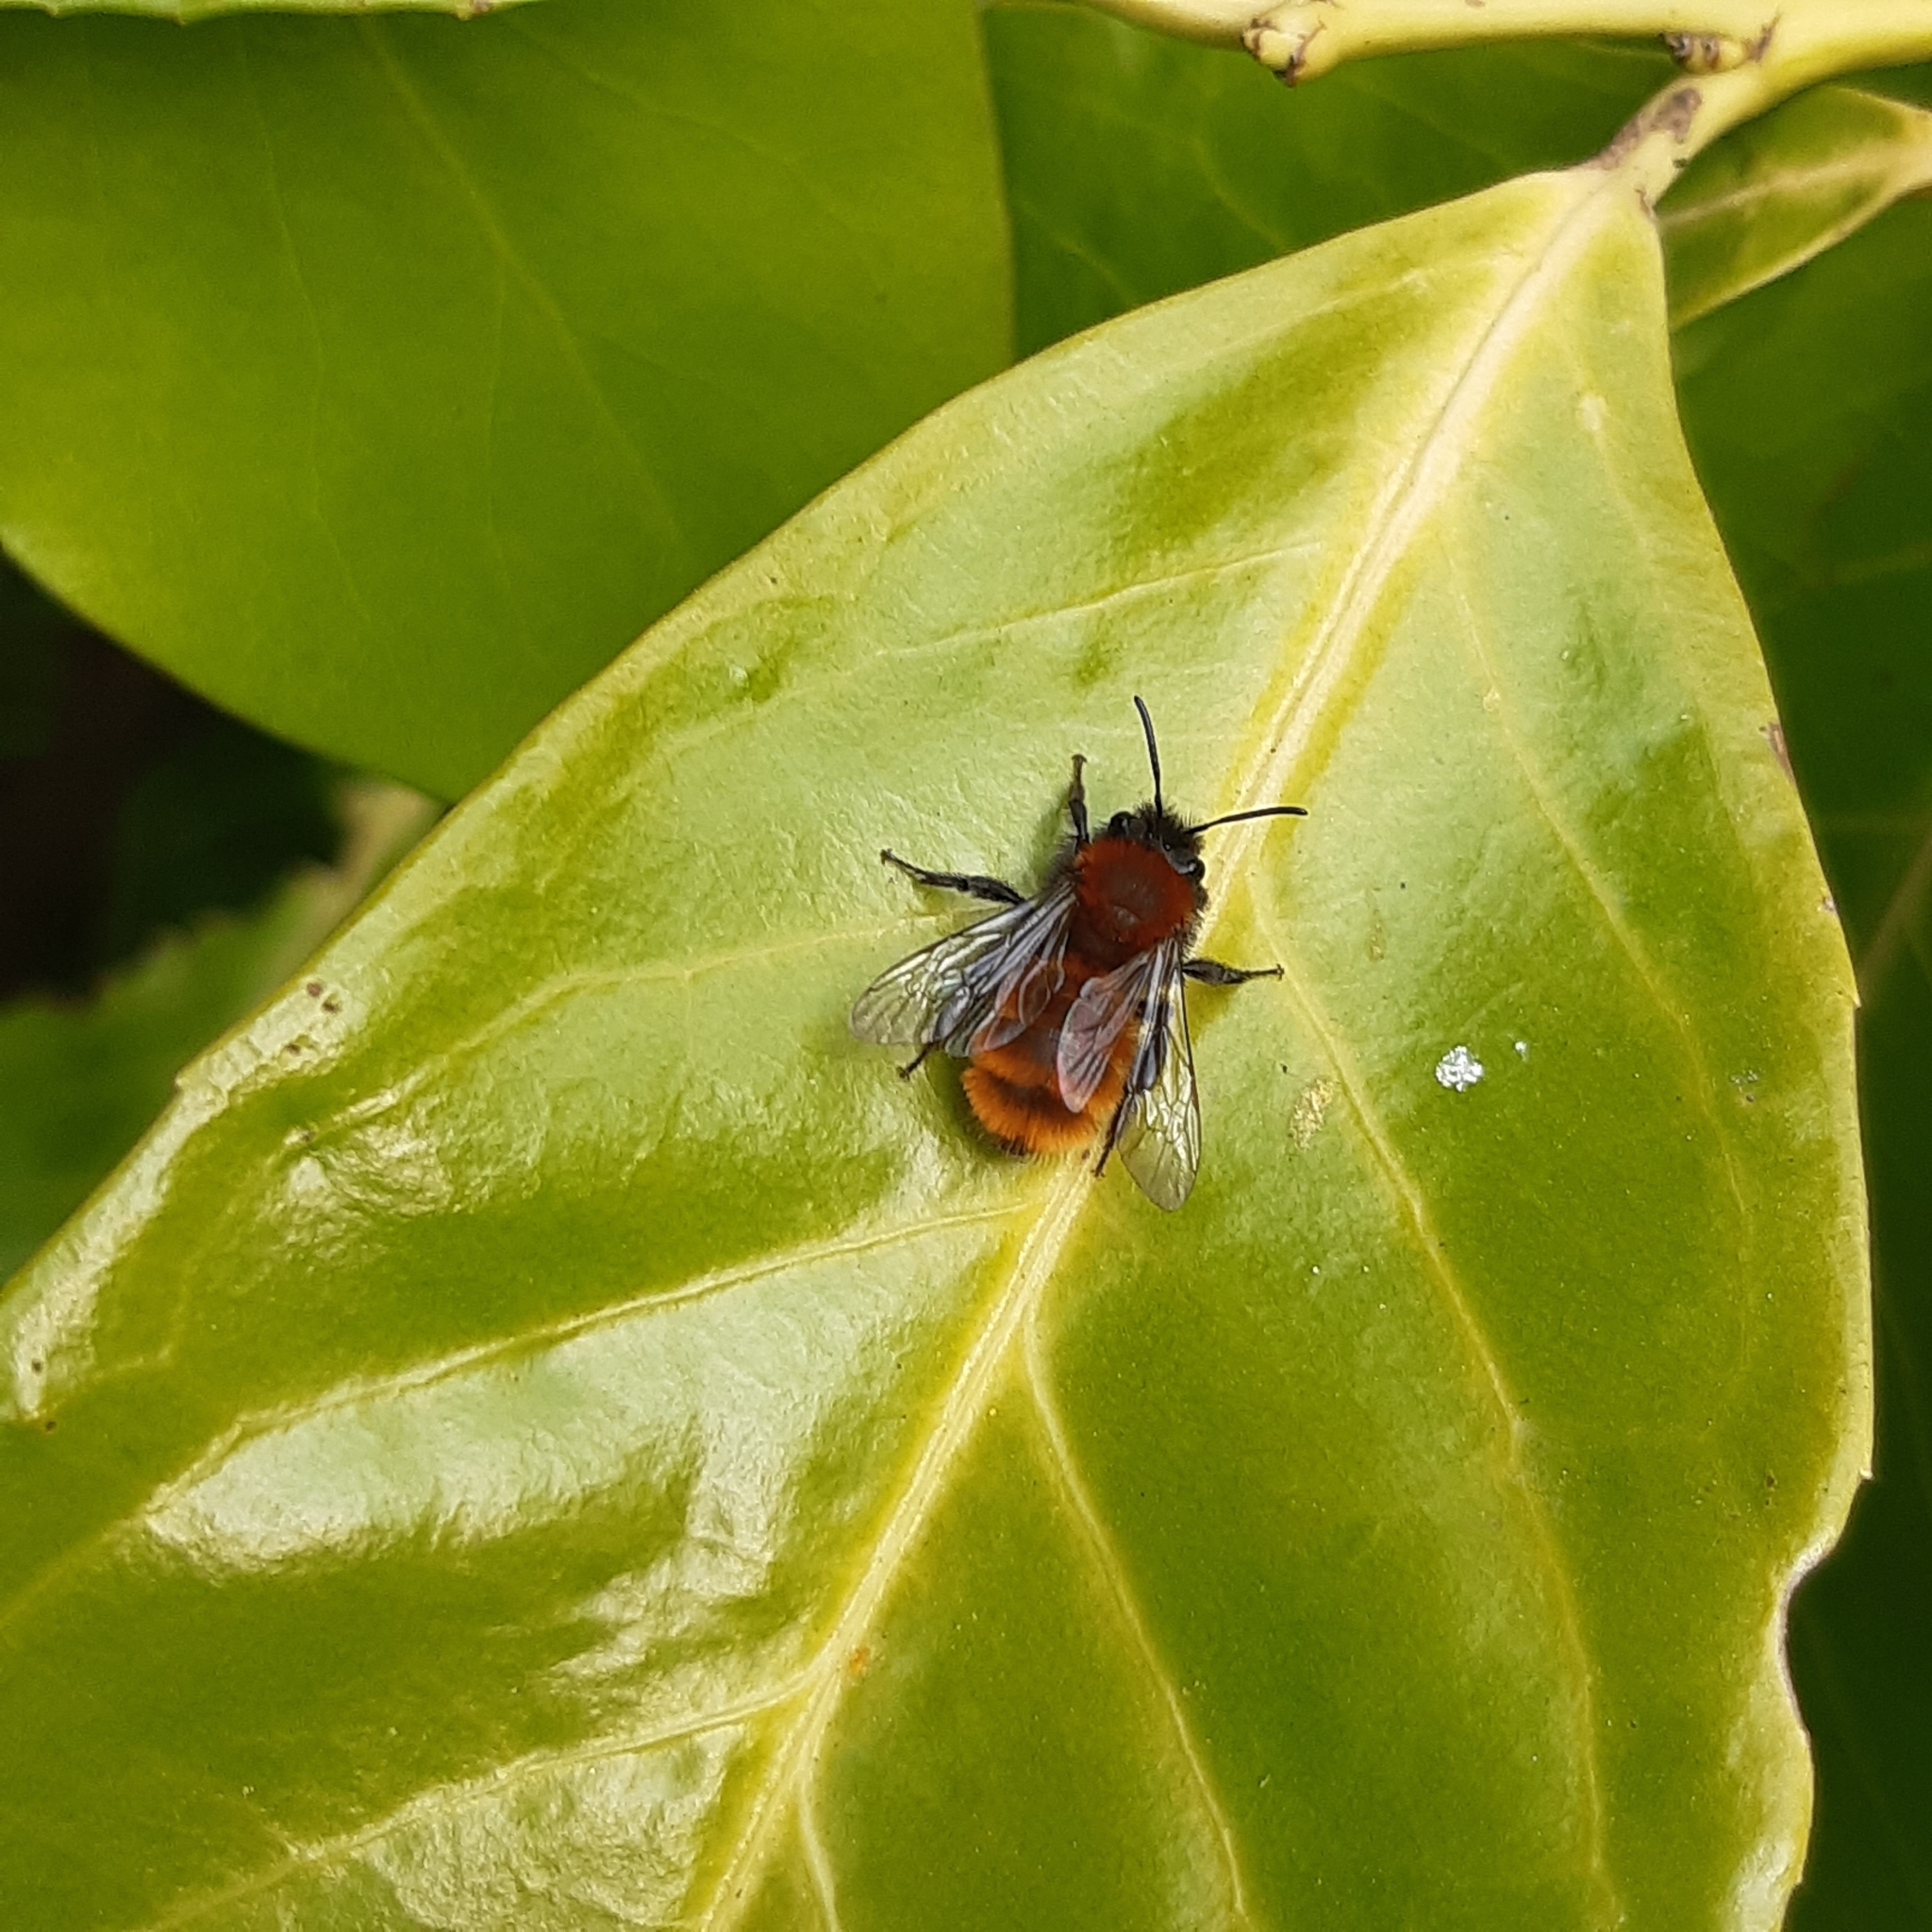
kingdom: Animalia
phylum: Arthropoda
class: Insecta
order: Hymenoptera
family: Andrenidae
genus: Andrena
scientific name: Andrena fulva
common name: Tawny mining bee
